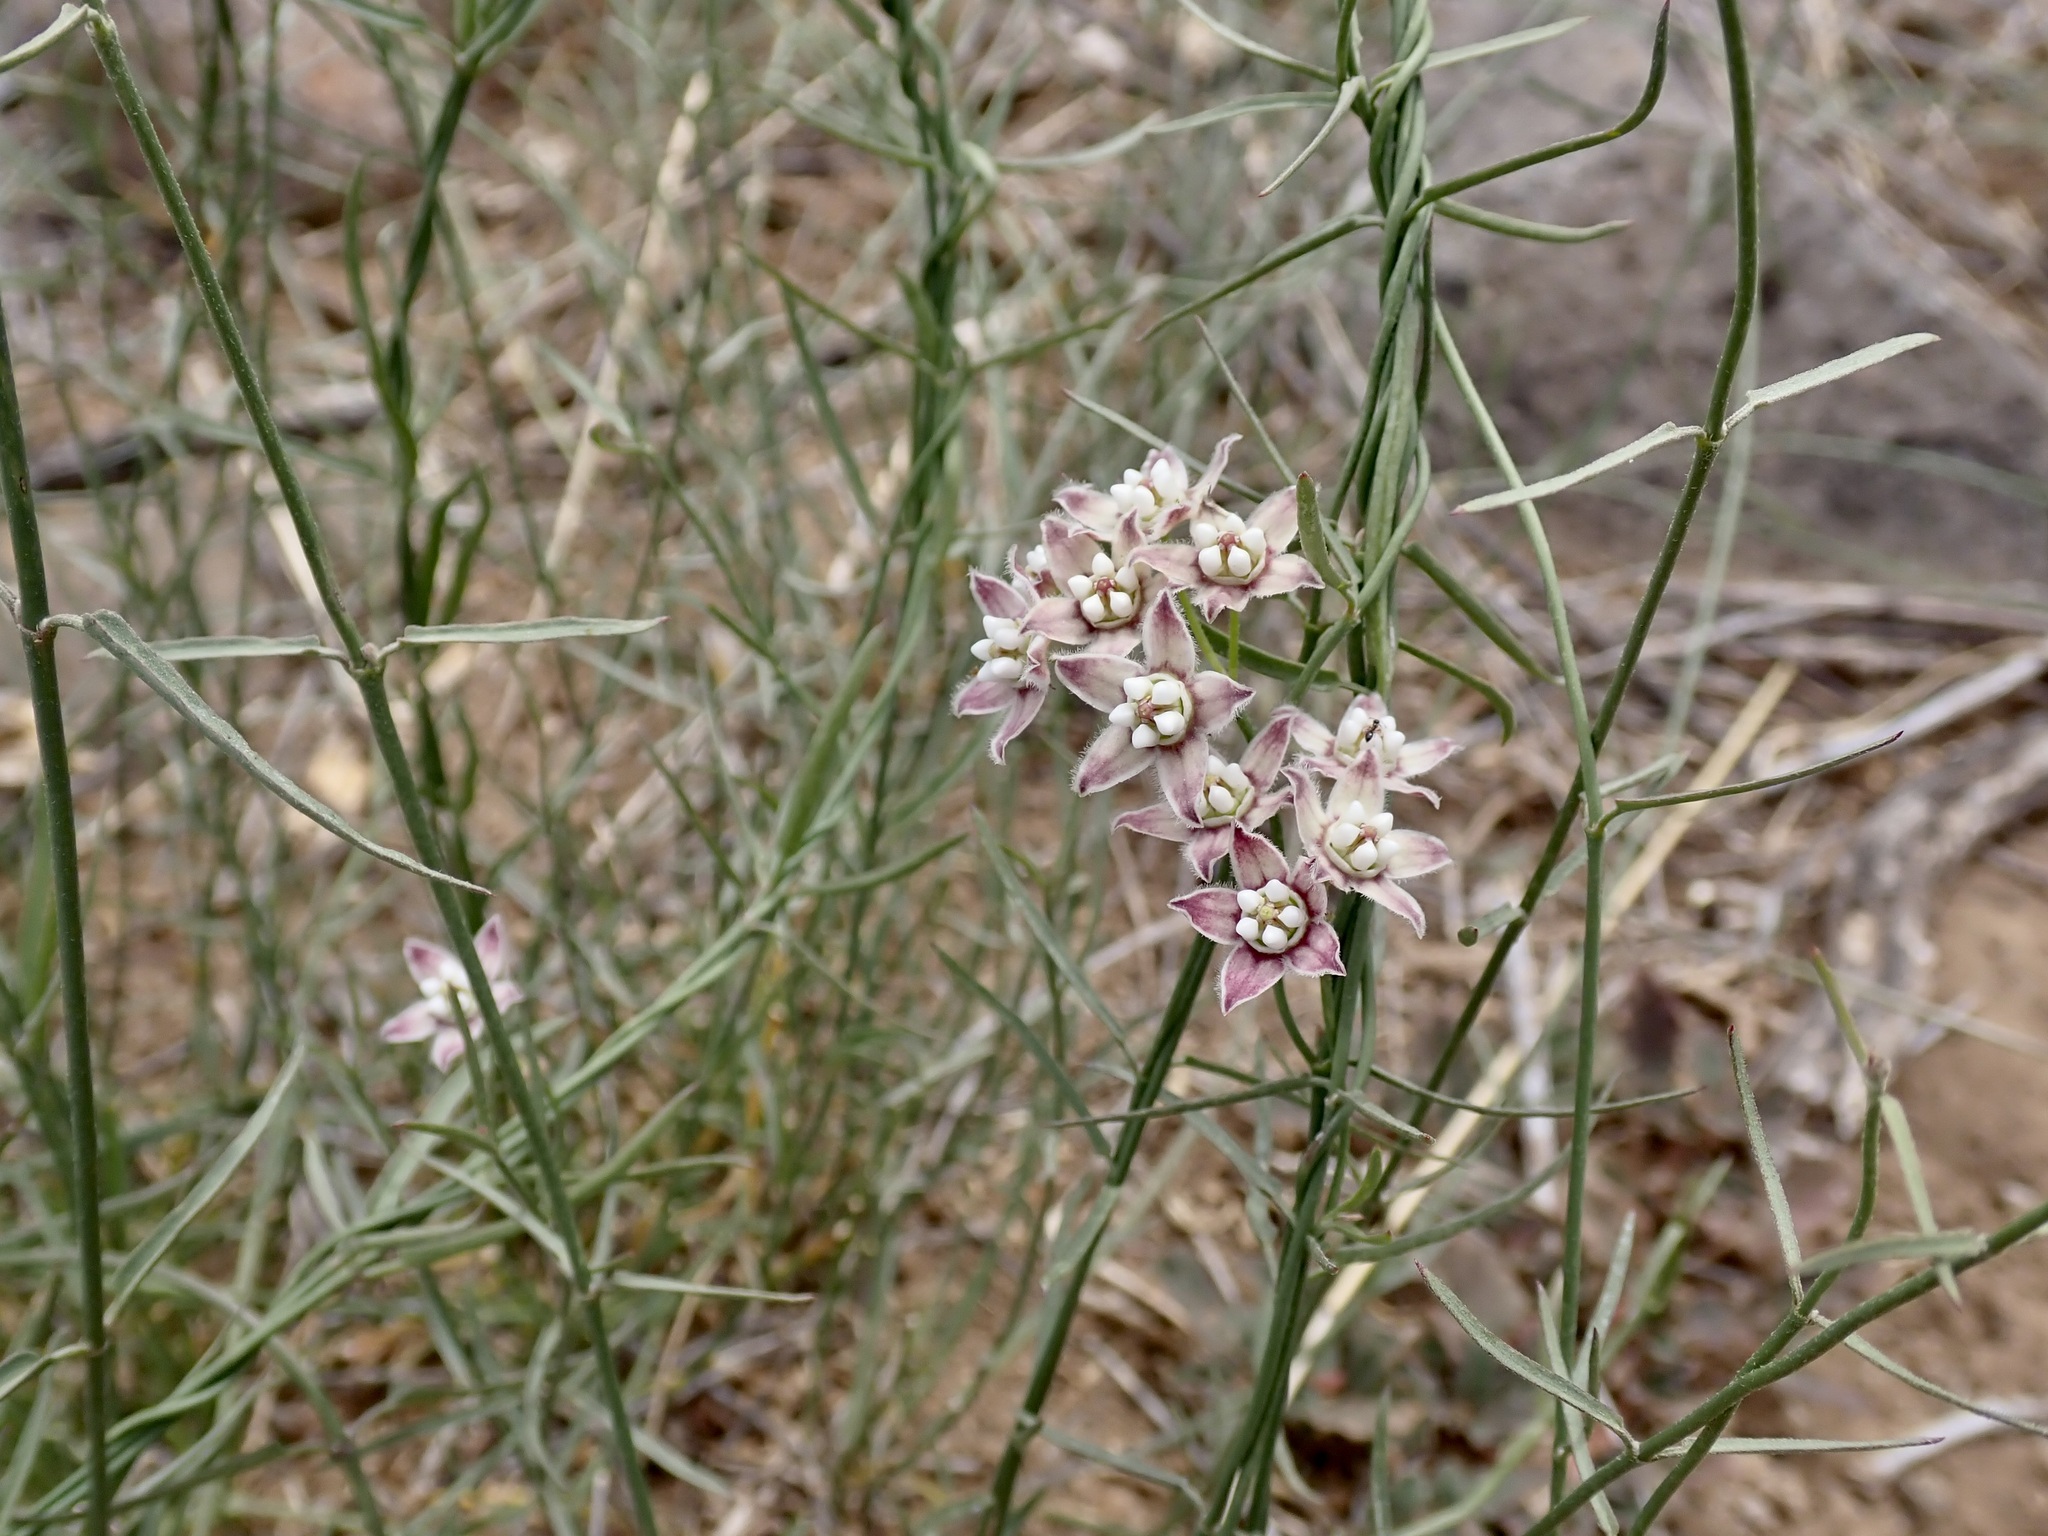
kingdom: Plantae
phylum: Tracheophyta
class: Magnoliopsida
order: Gentianales
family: Apocynaceae
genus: Funastrum
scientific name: Funastrum heterophyllum
